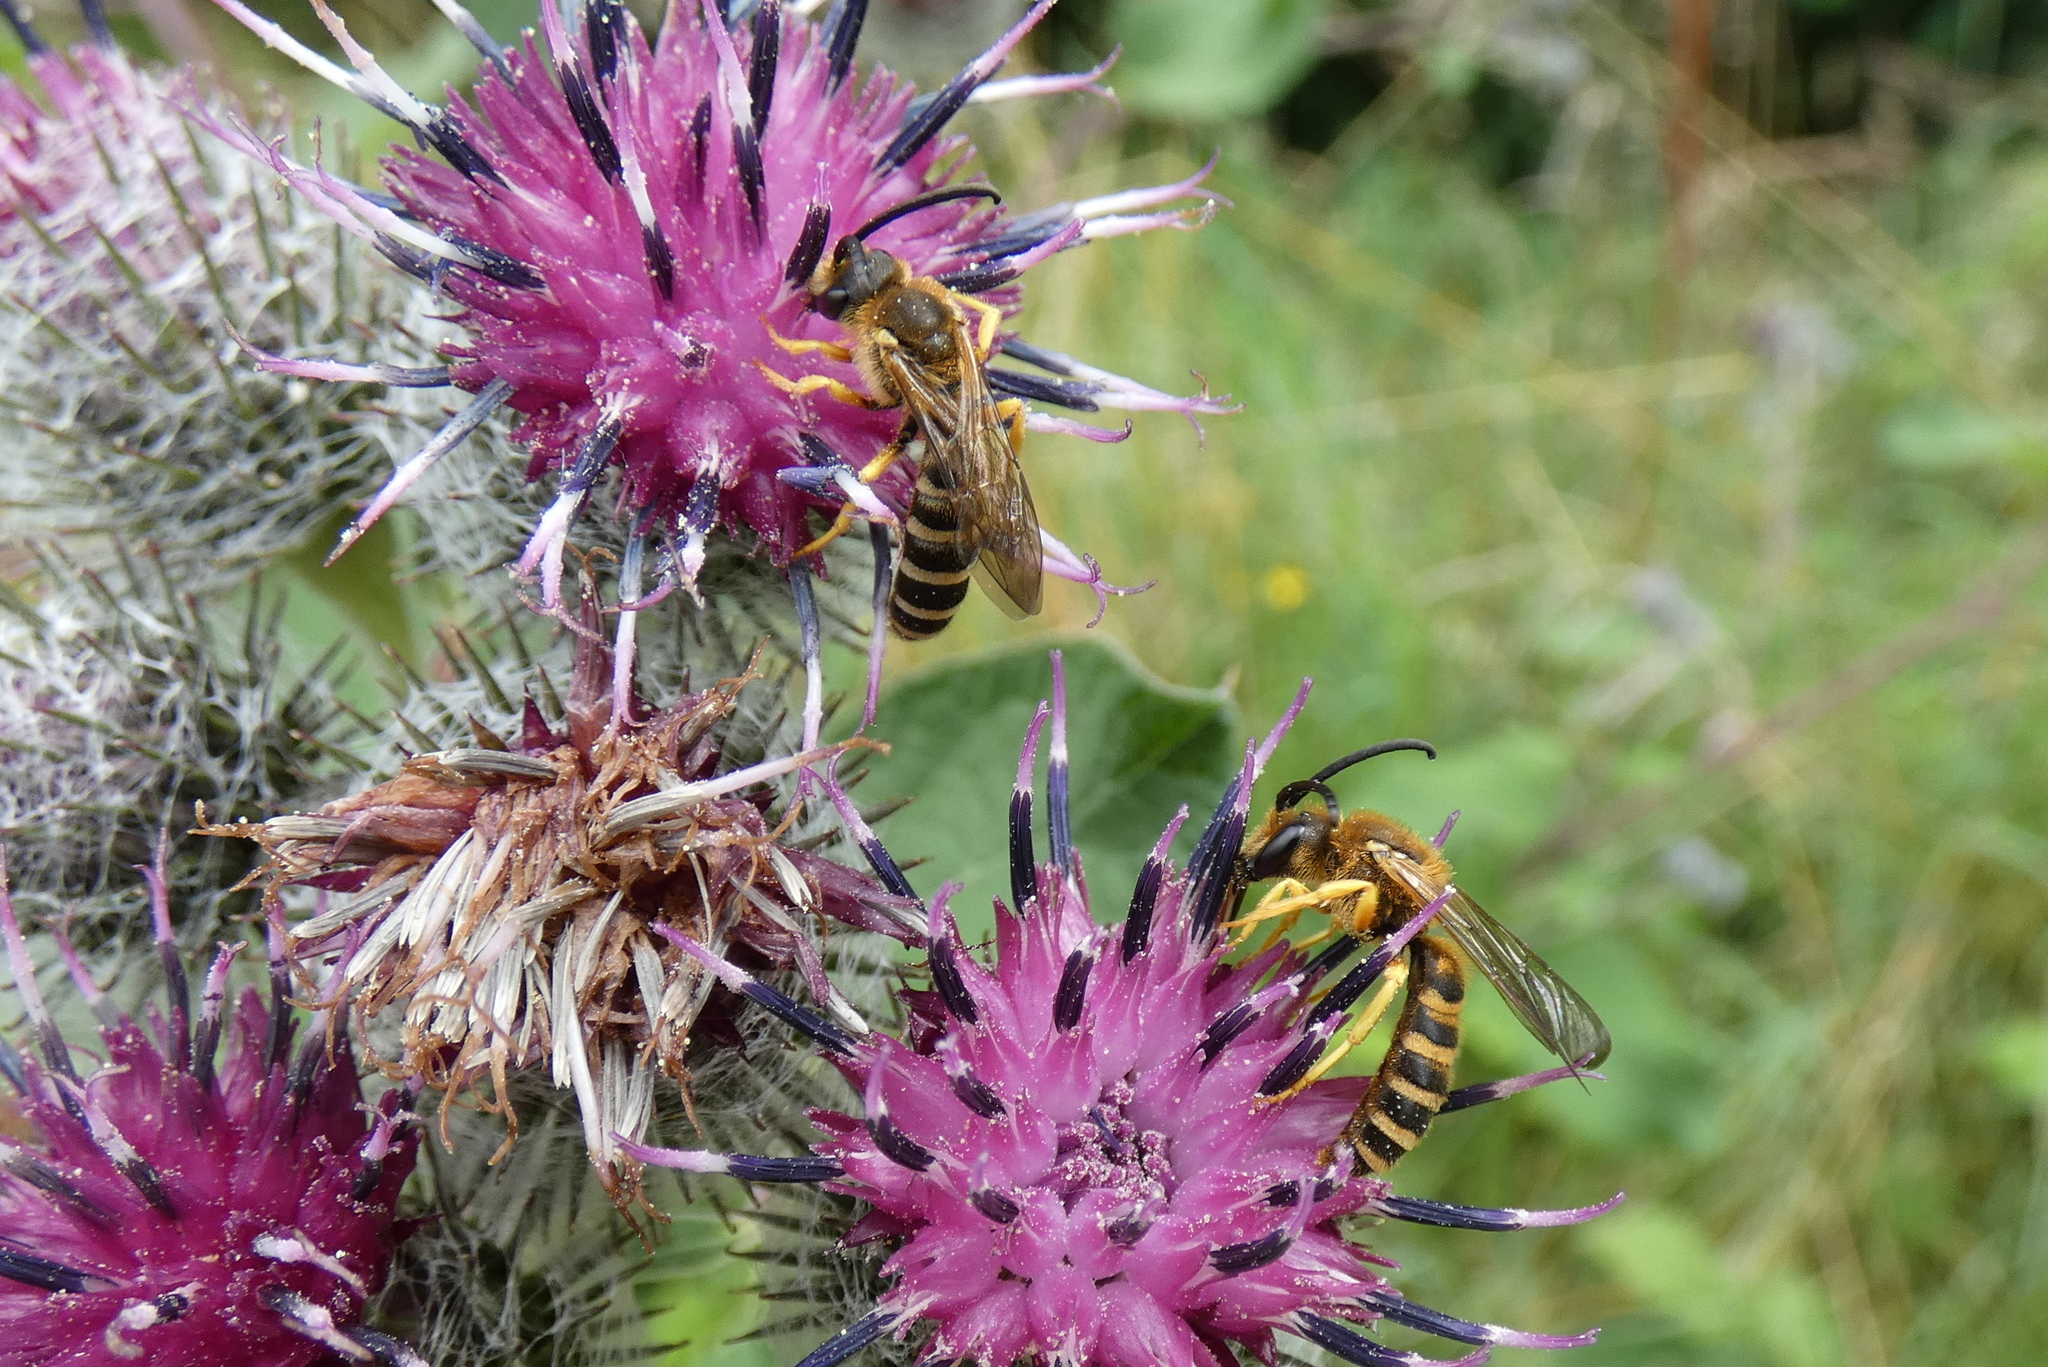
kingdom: Animalia
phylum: Arthropoda
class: Insecta
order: Hymenoptera
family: Halictidae
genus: Halictus
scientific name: Halictus scabiosae
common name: Great banded furrow bee
